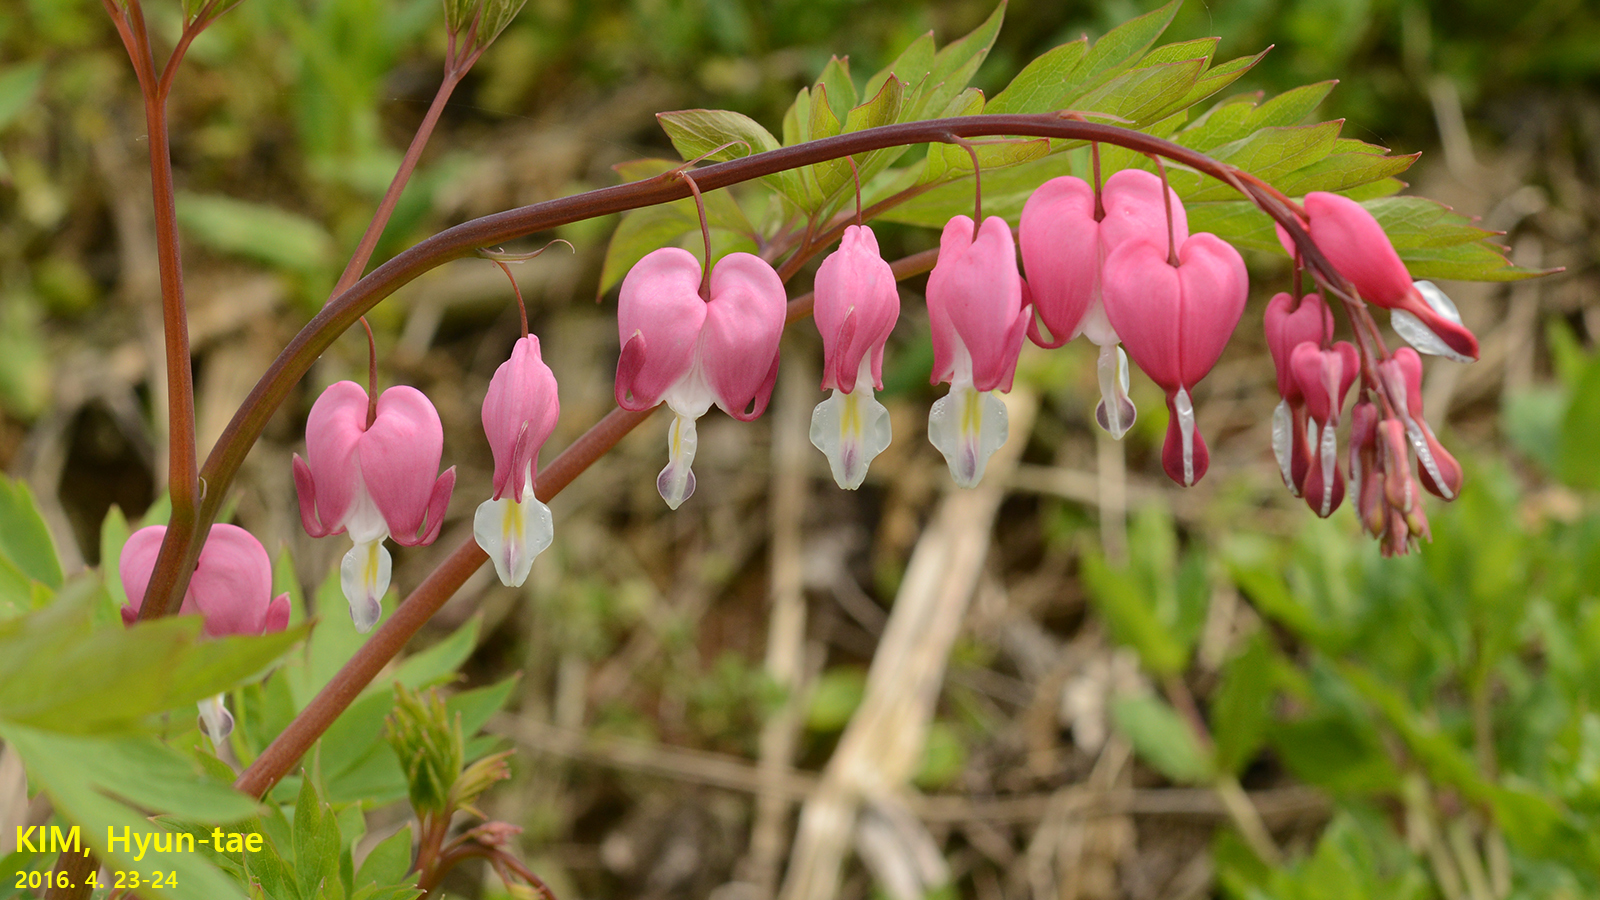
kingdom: Plantae
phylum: Tracheophyta
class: Magnoliopsida
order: Ranunculales
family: Papaveraceae
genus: Lamprocapnos
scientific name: Lamprocapnos spectabilis
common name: Asian bleeding-heart
